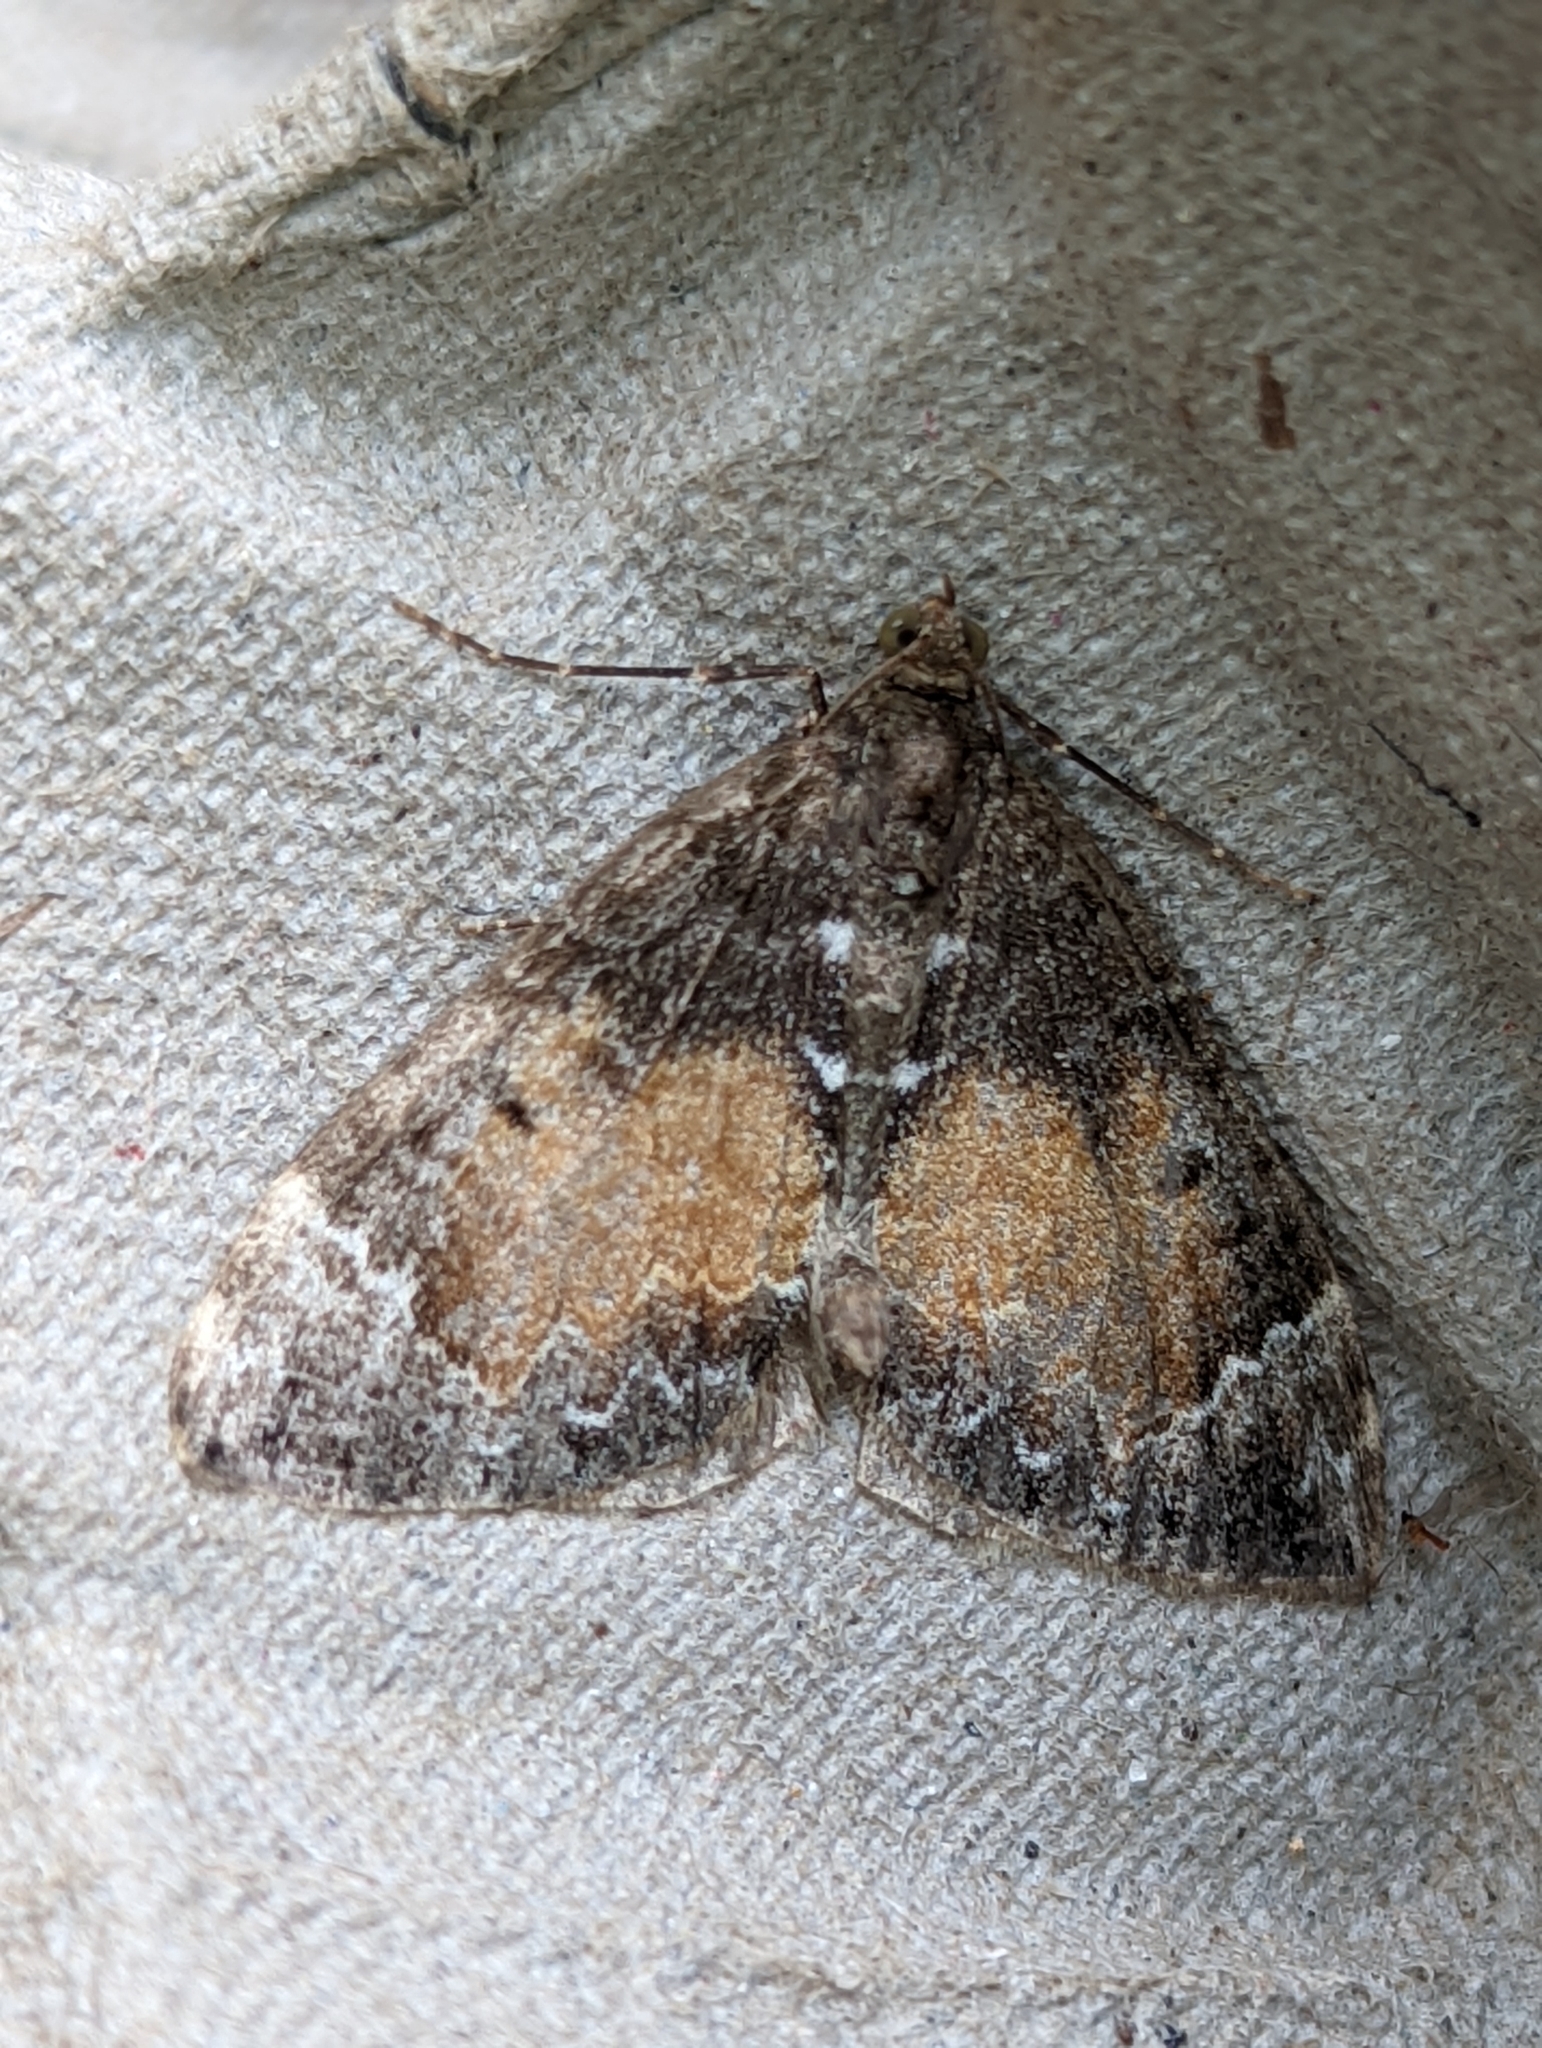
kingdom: Animalia
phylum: Arthropoda
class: Insecta
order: Lepidoptera
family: Geometridae
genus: Dysstroma
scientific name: Dysstroma truncata
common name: Common marbled carpet
